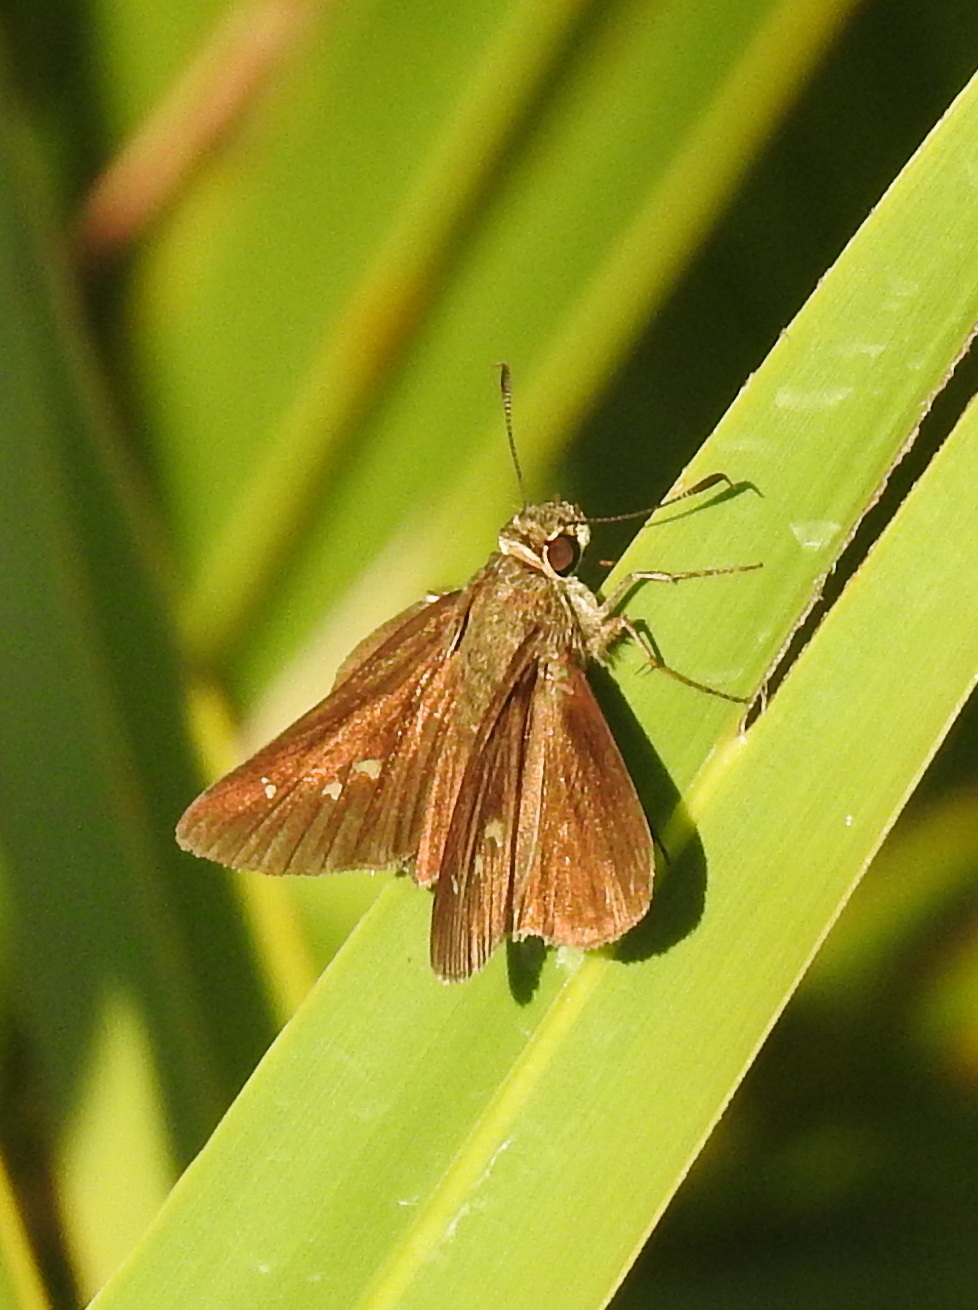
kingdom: Animalia
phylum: Arthropoda
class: Insecta
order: Lepidoptera
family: Hesperiidae
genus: Oligoria
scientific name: Oligoria maculata
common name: Twin-spot skipper
